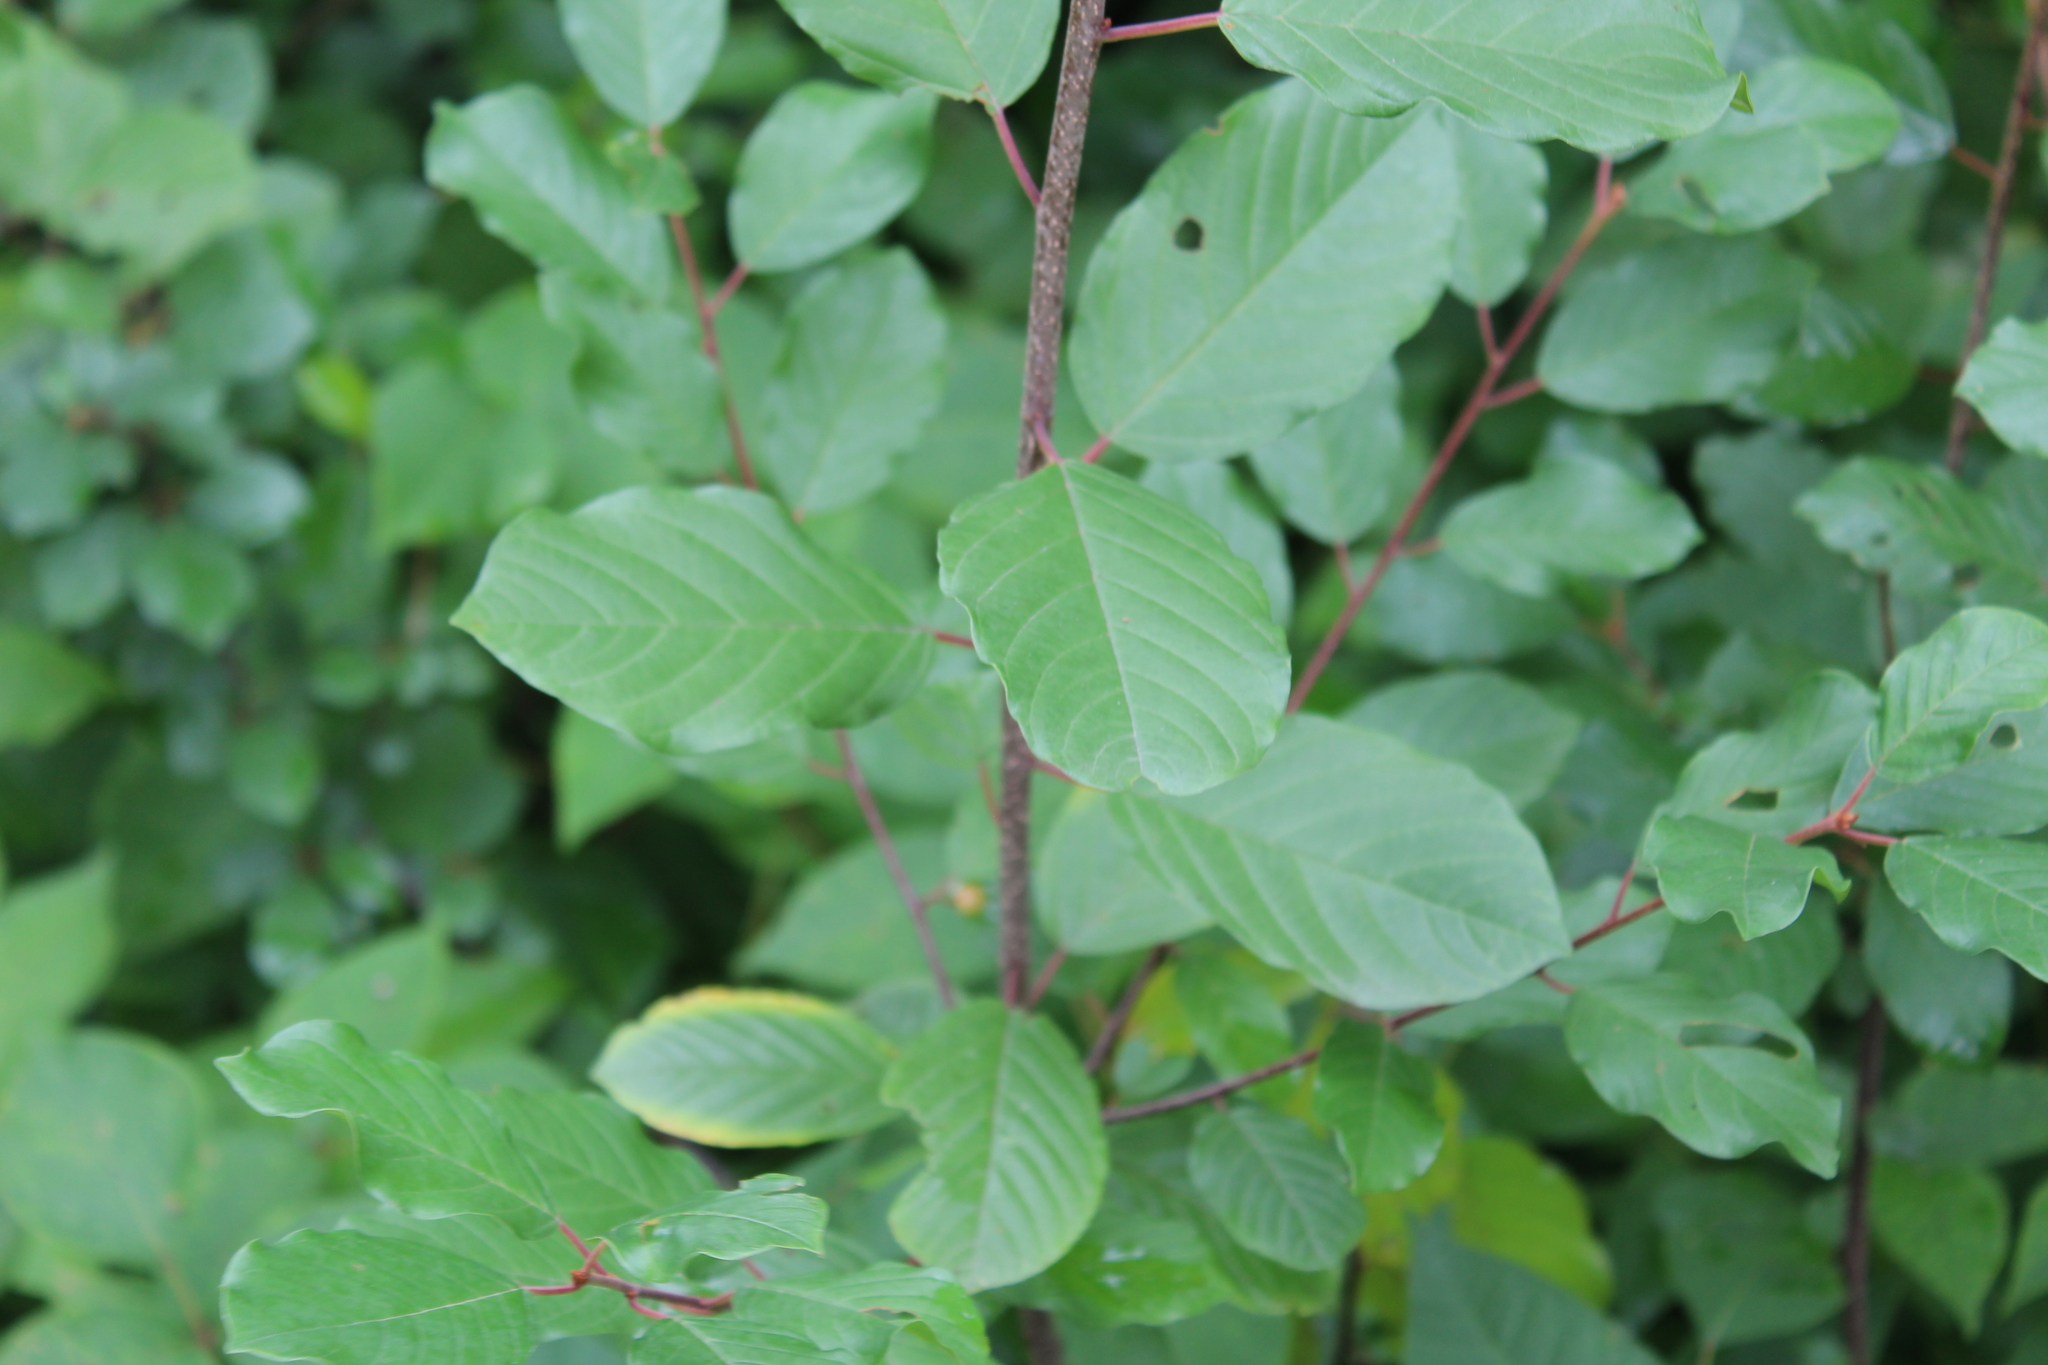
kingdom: Plantae
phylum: Tracheophyta
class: Magnoliopsida
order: Rosales
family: Rhamnaceae
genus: Frangula
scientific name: Frangula alnus
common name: Alder buckthorn
